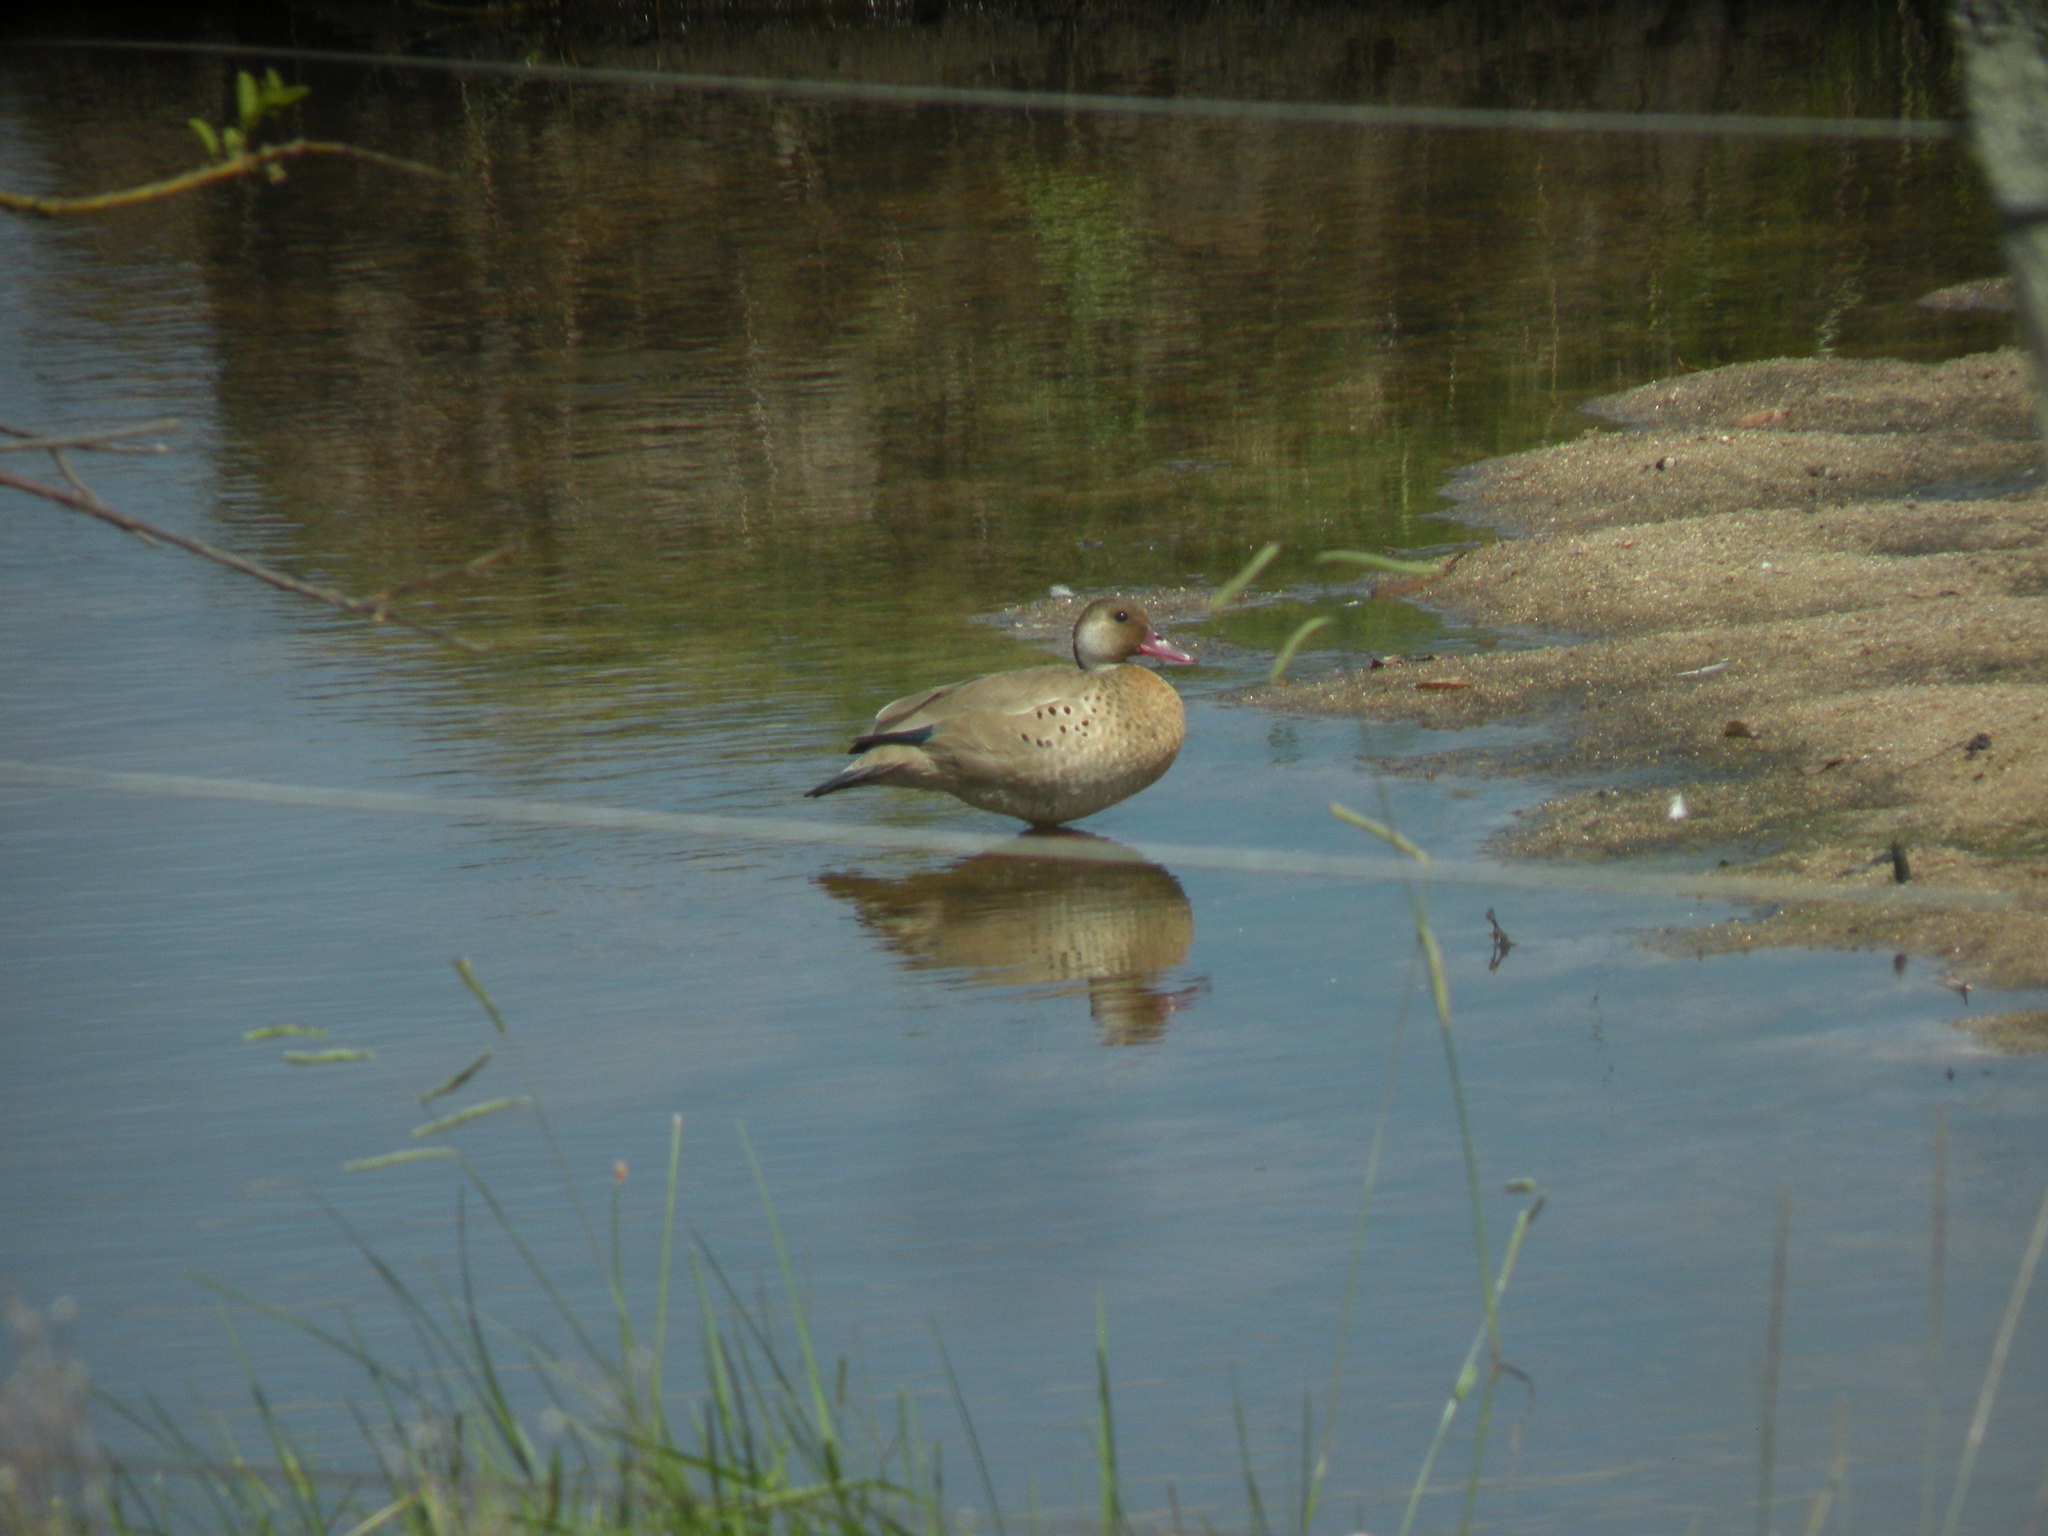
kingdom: Animalia
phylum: Chordata
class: Aves
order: Anseriformes
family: Anatidae
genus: Amazonetta
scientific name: Amazonetta brasiliensis
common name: Brazilian teal
